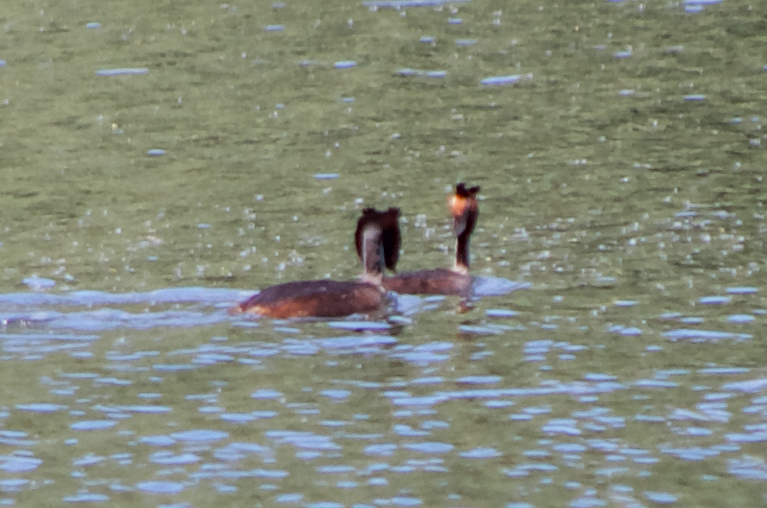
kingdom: Animalia
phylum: Chordata
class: Aves
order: Podicipediformes
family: Podicipedidae
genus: Podiceps
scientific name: Podiceps cristatus
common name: Great crested grebe
